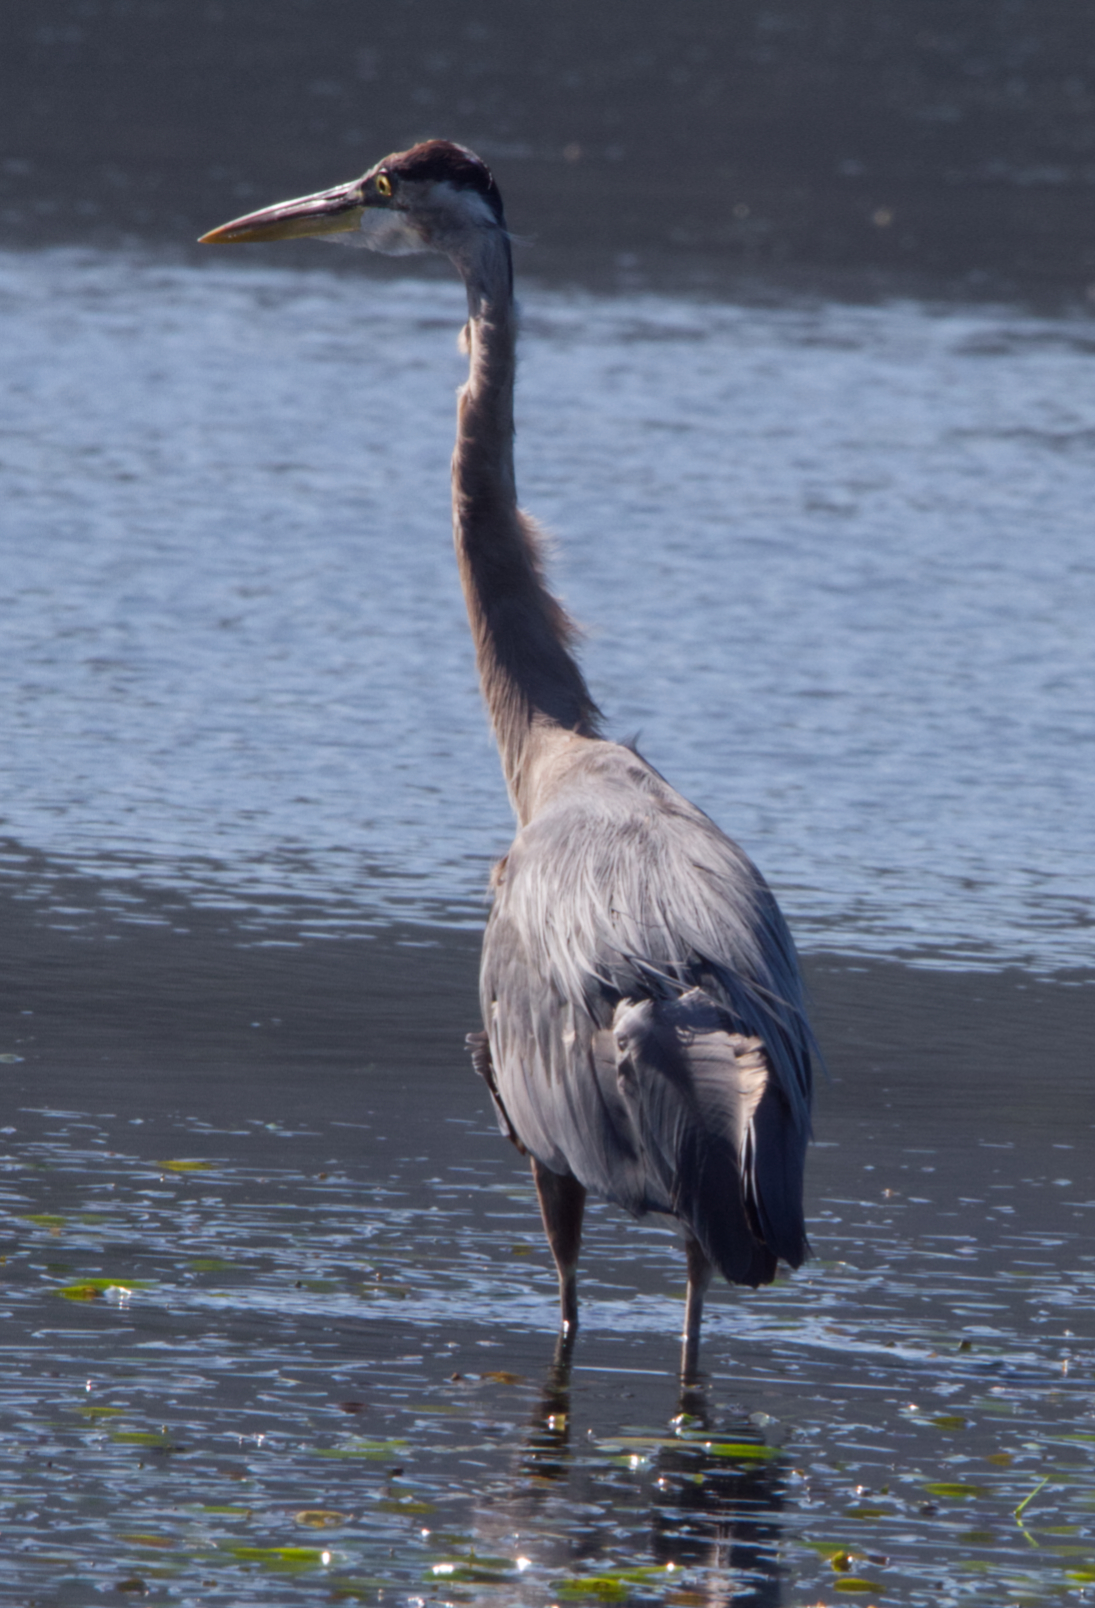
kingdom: Animalia
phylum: Chordata
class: Aves
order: Pelecaniformes
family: Ardeidae
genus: Ardea
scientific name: Ardea herodias
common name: Great blue heron
